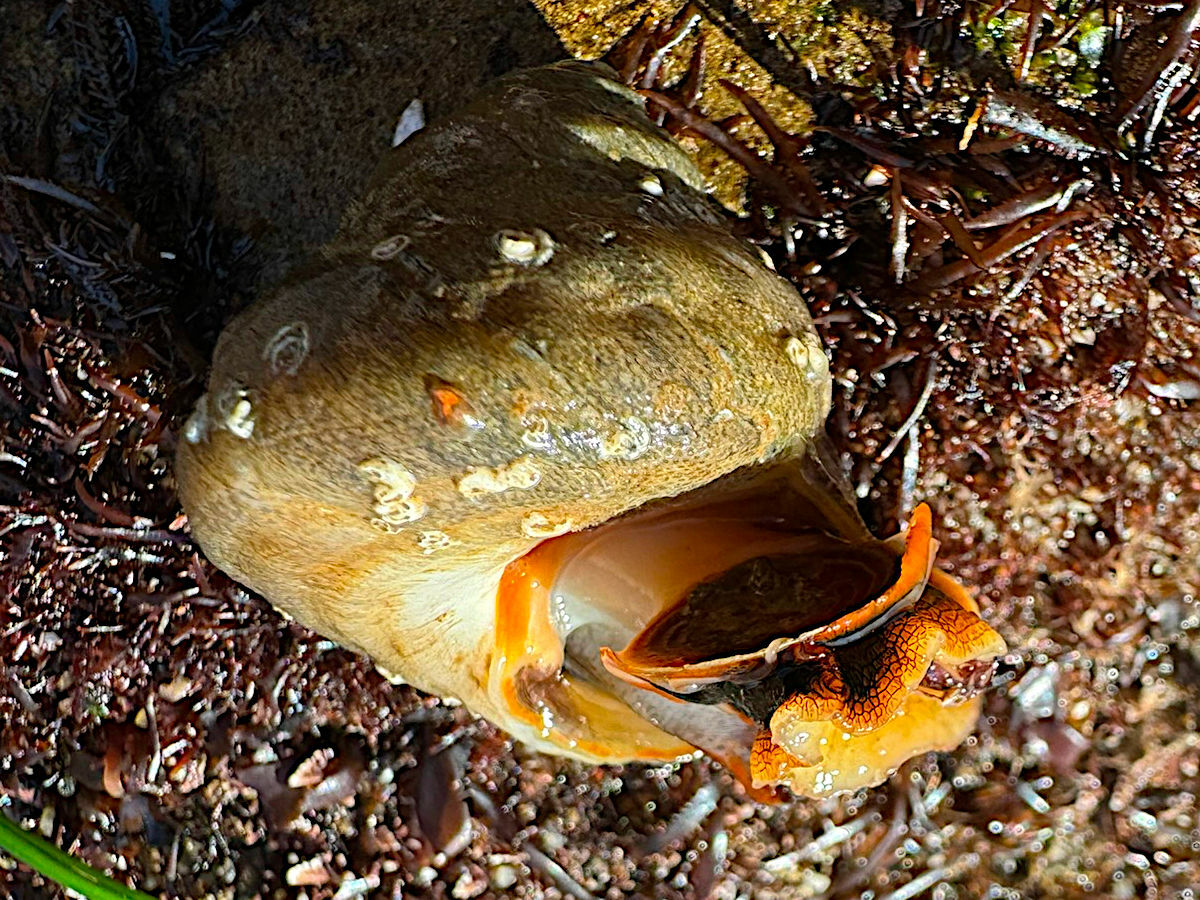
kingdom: Animalia
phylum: Mollusca
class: Gastropoda
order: Trochida
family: Tegulidae
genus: Tegula
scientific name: Tegula aureotincta
